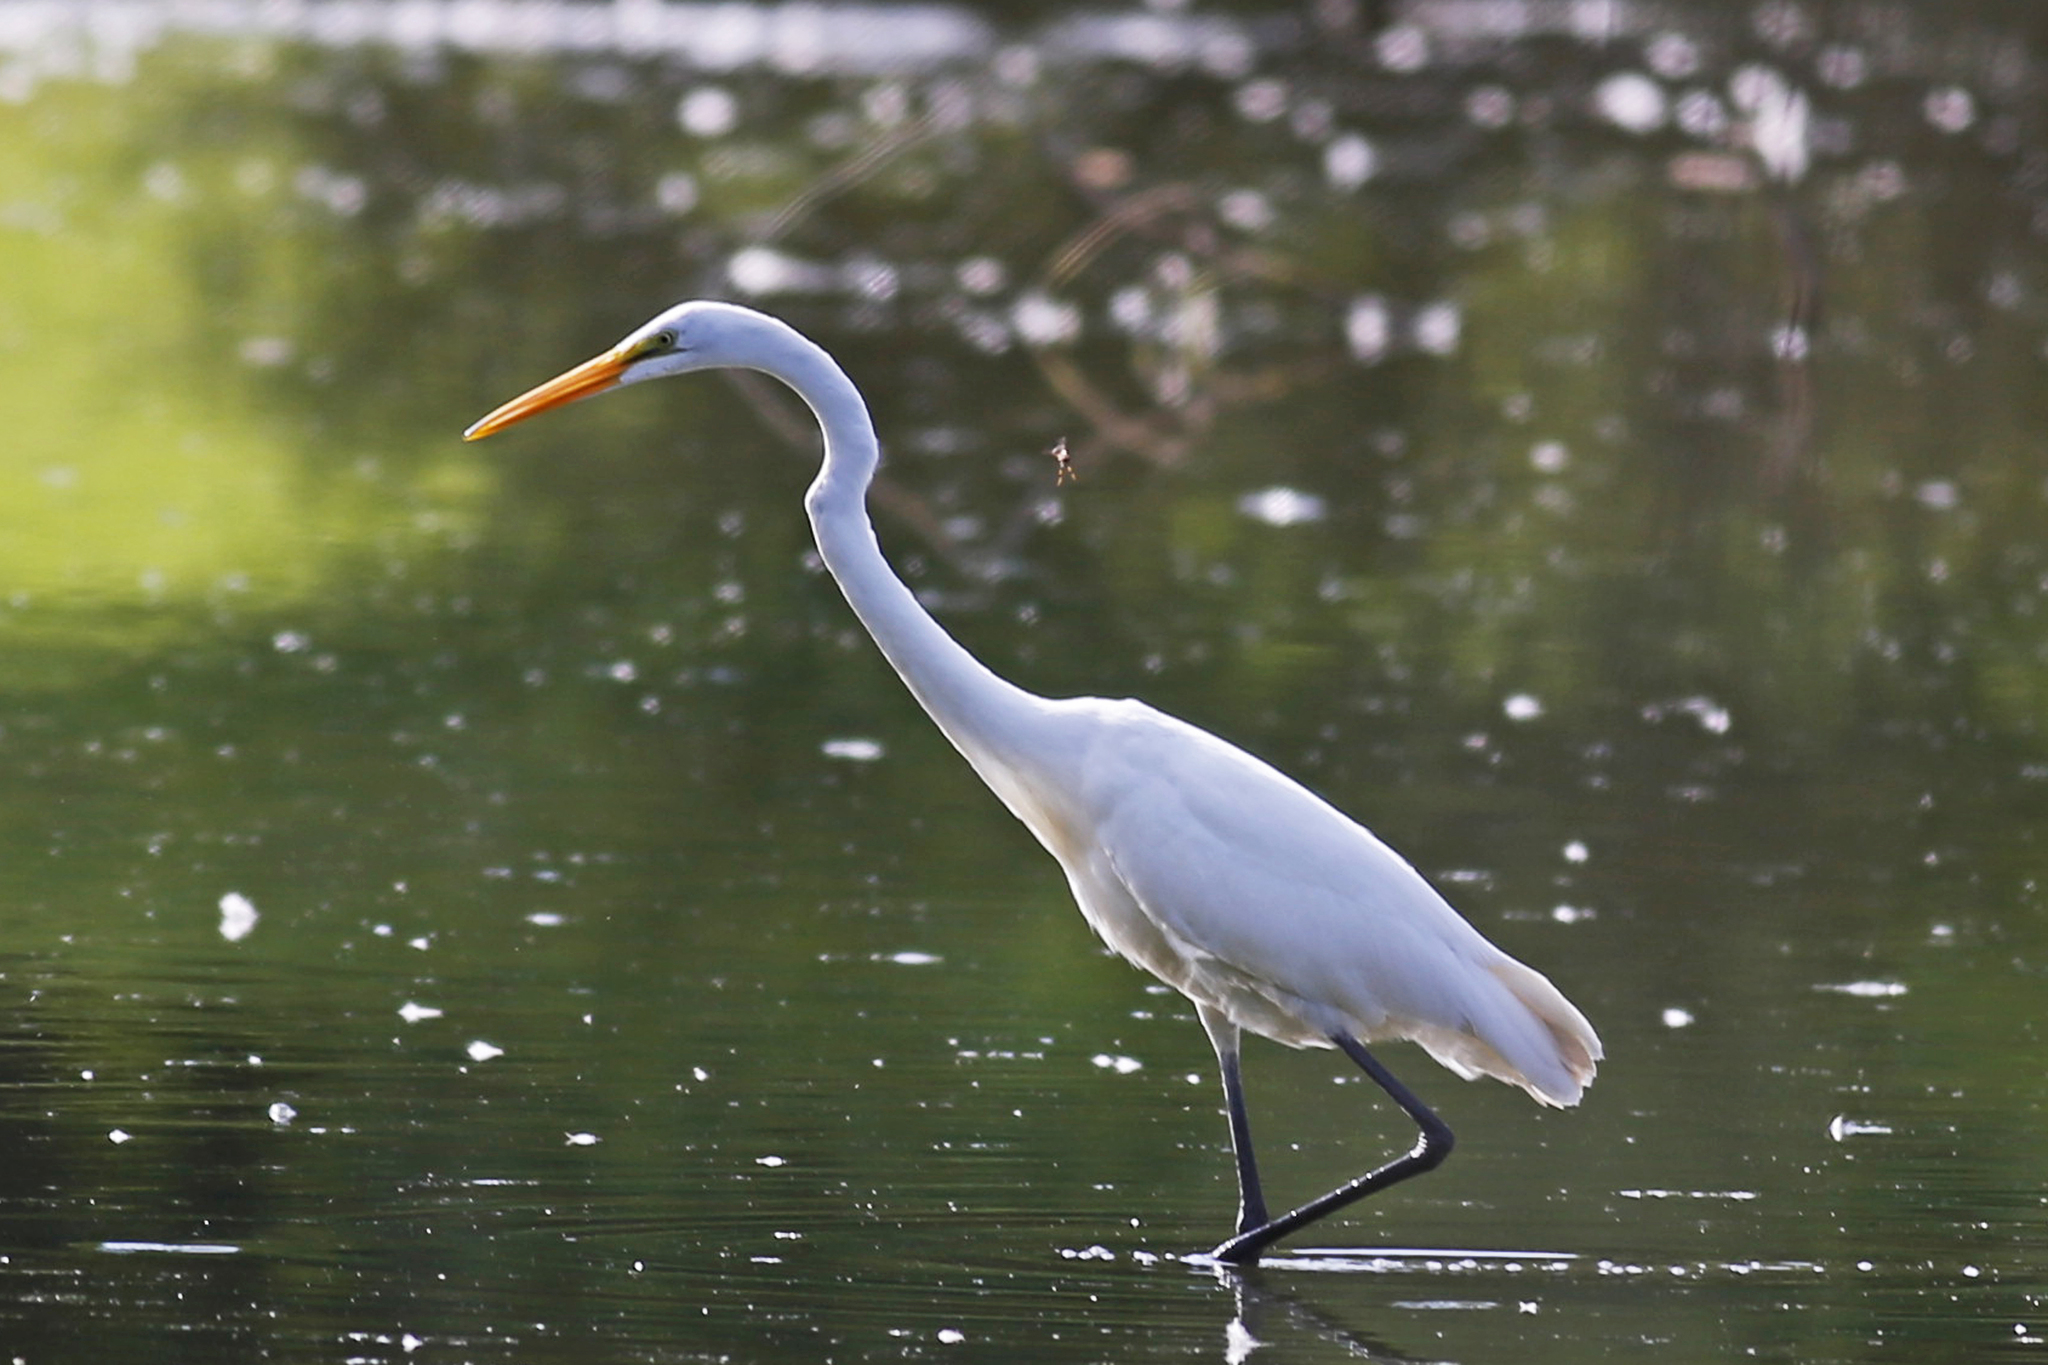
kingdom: Animalia
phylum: Chordata
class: Aves
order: Pelecaniformes
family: Ardeidae
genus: Ardea
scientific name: Ardea alba
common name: Great egret
